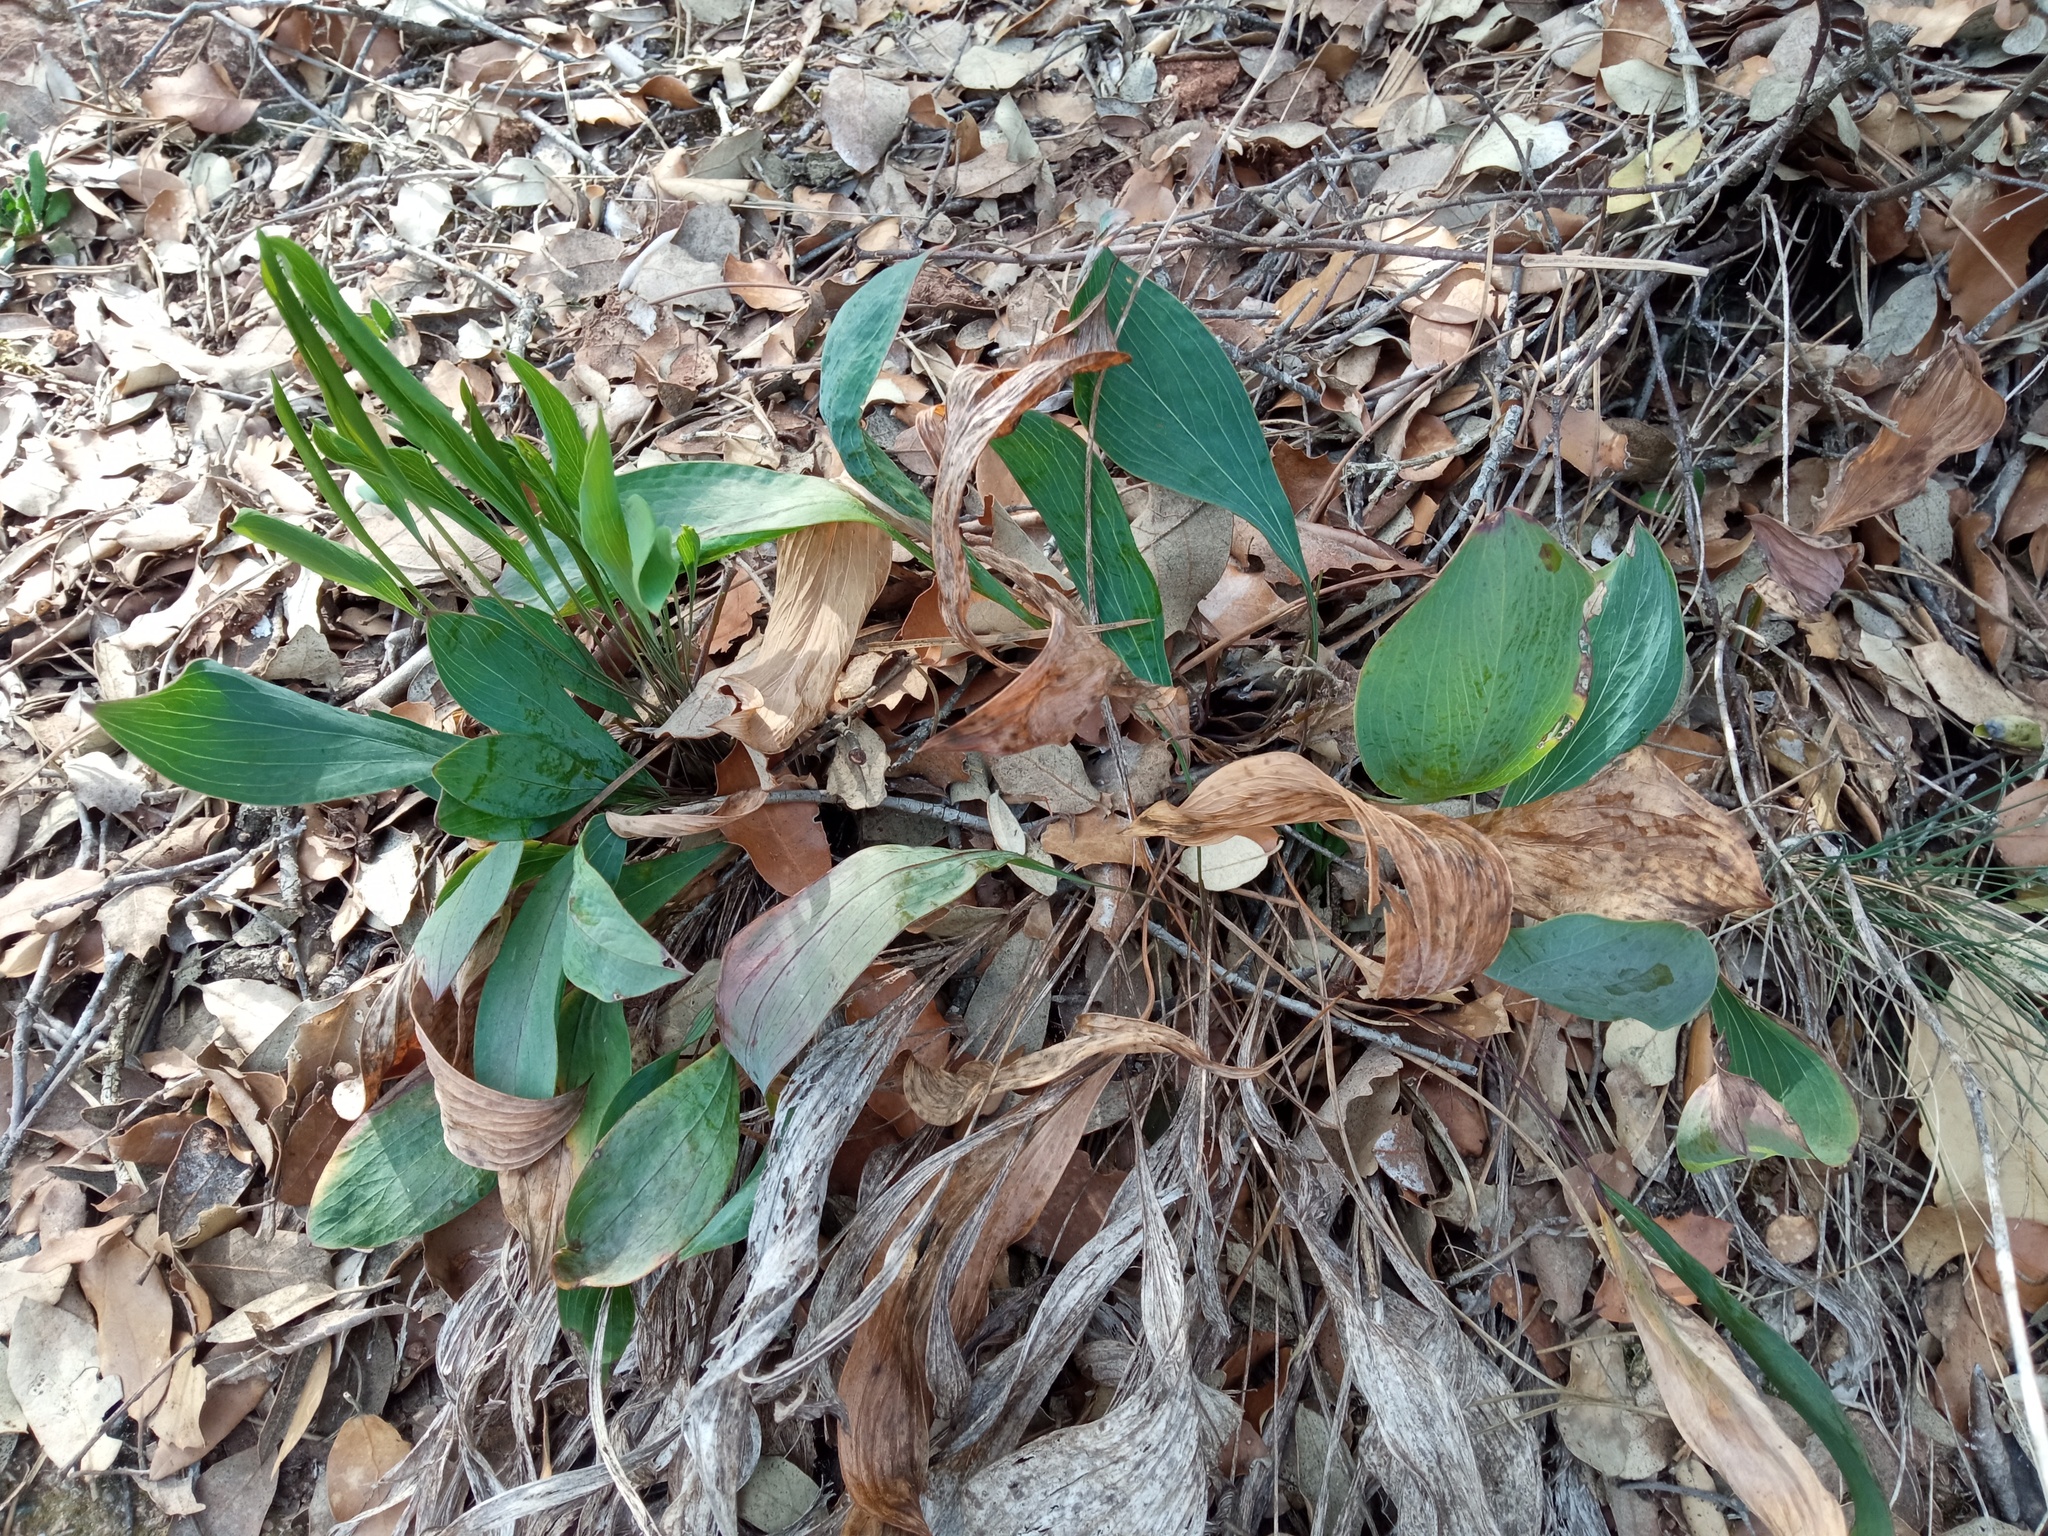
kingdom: Plantae
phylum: Tracheophyta
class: Magnoliopsida
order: Apiales
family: Apiaceae
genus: Bupleurum
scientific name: Bupleurum rigidum
